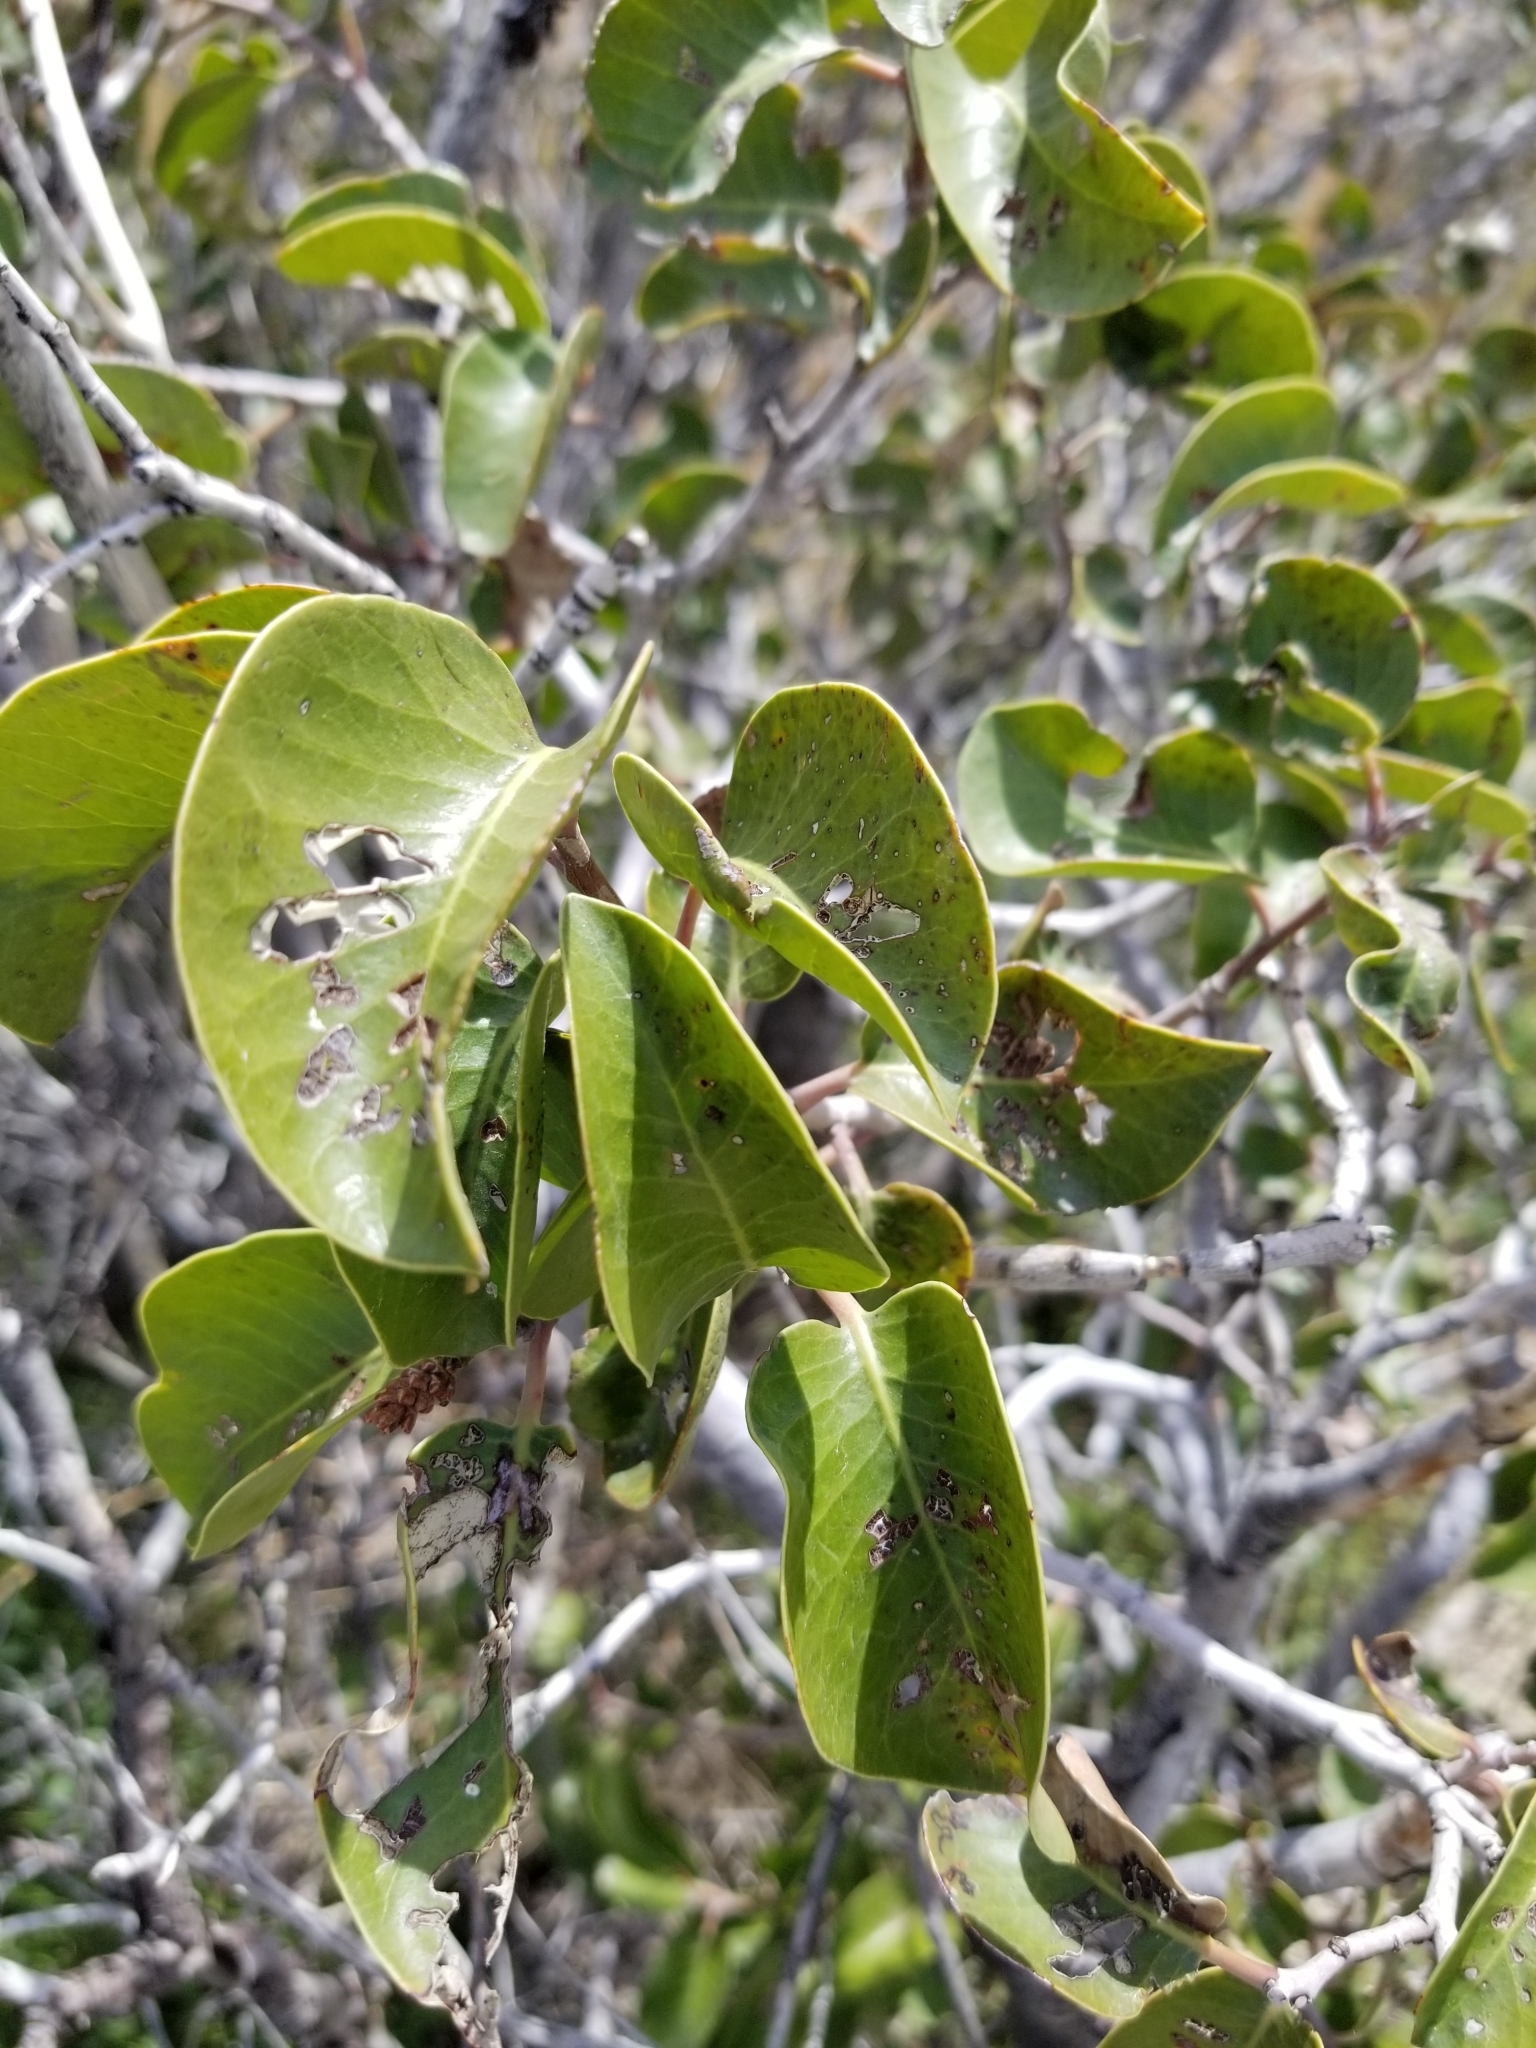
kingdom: Plantae
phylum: Tracheophyta
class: Magnoliopsida
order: Sapindales
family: Anacardiaceae
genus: Rhus
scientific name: Rhus ovata
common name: Sugar sumac
